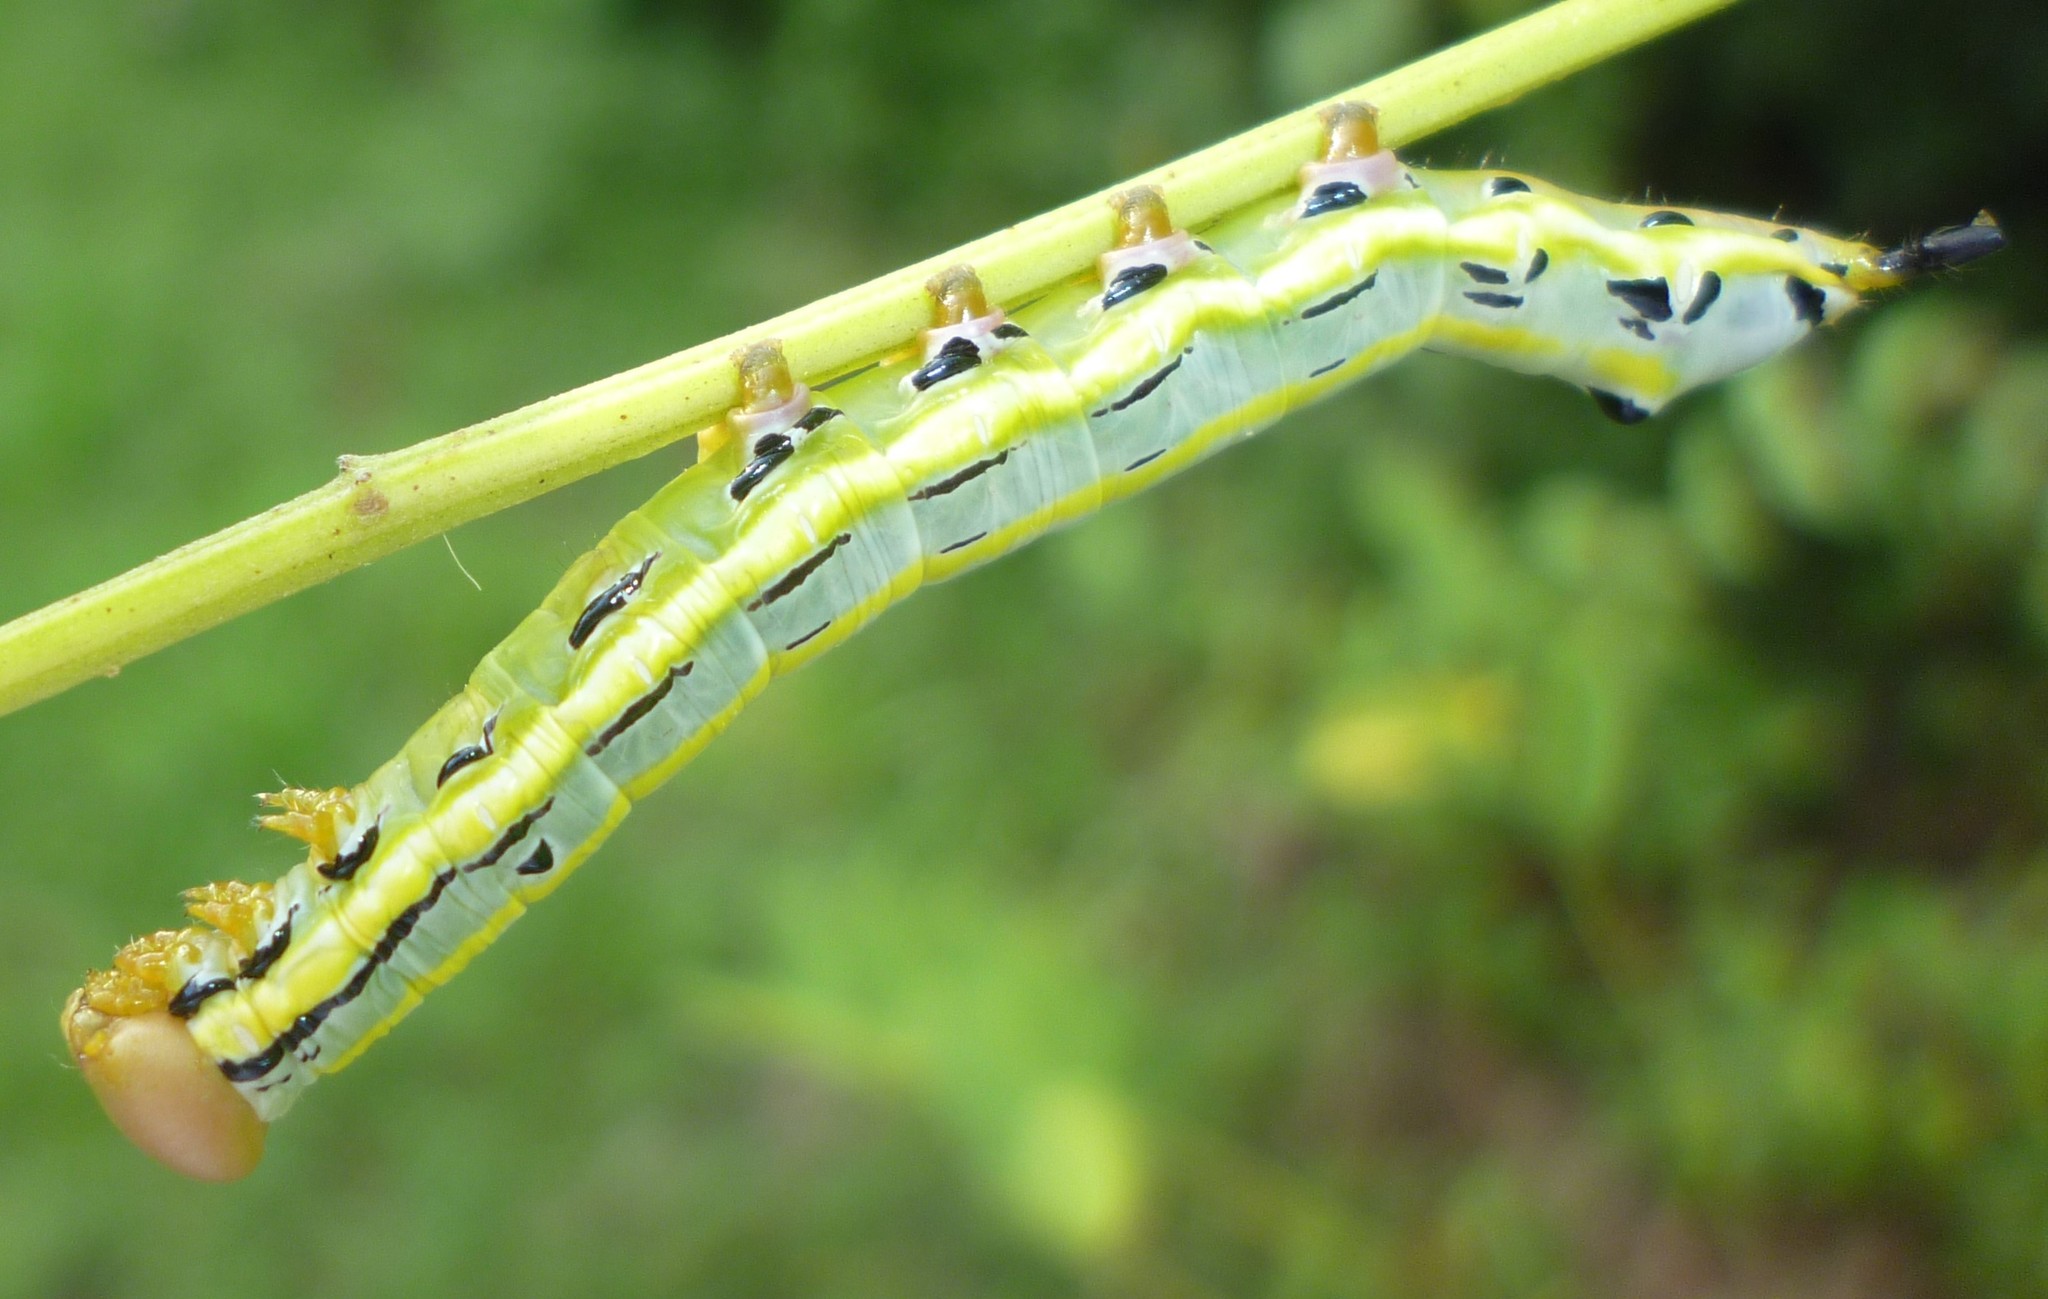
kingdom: Animalia
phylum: Arthropoda
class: Insecta
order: Lepidoptera
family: Notodontidae
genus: Dasylophia
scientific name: Dasylophia anguina
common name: Black-spotted prominent
